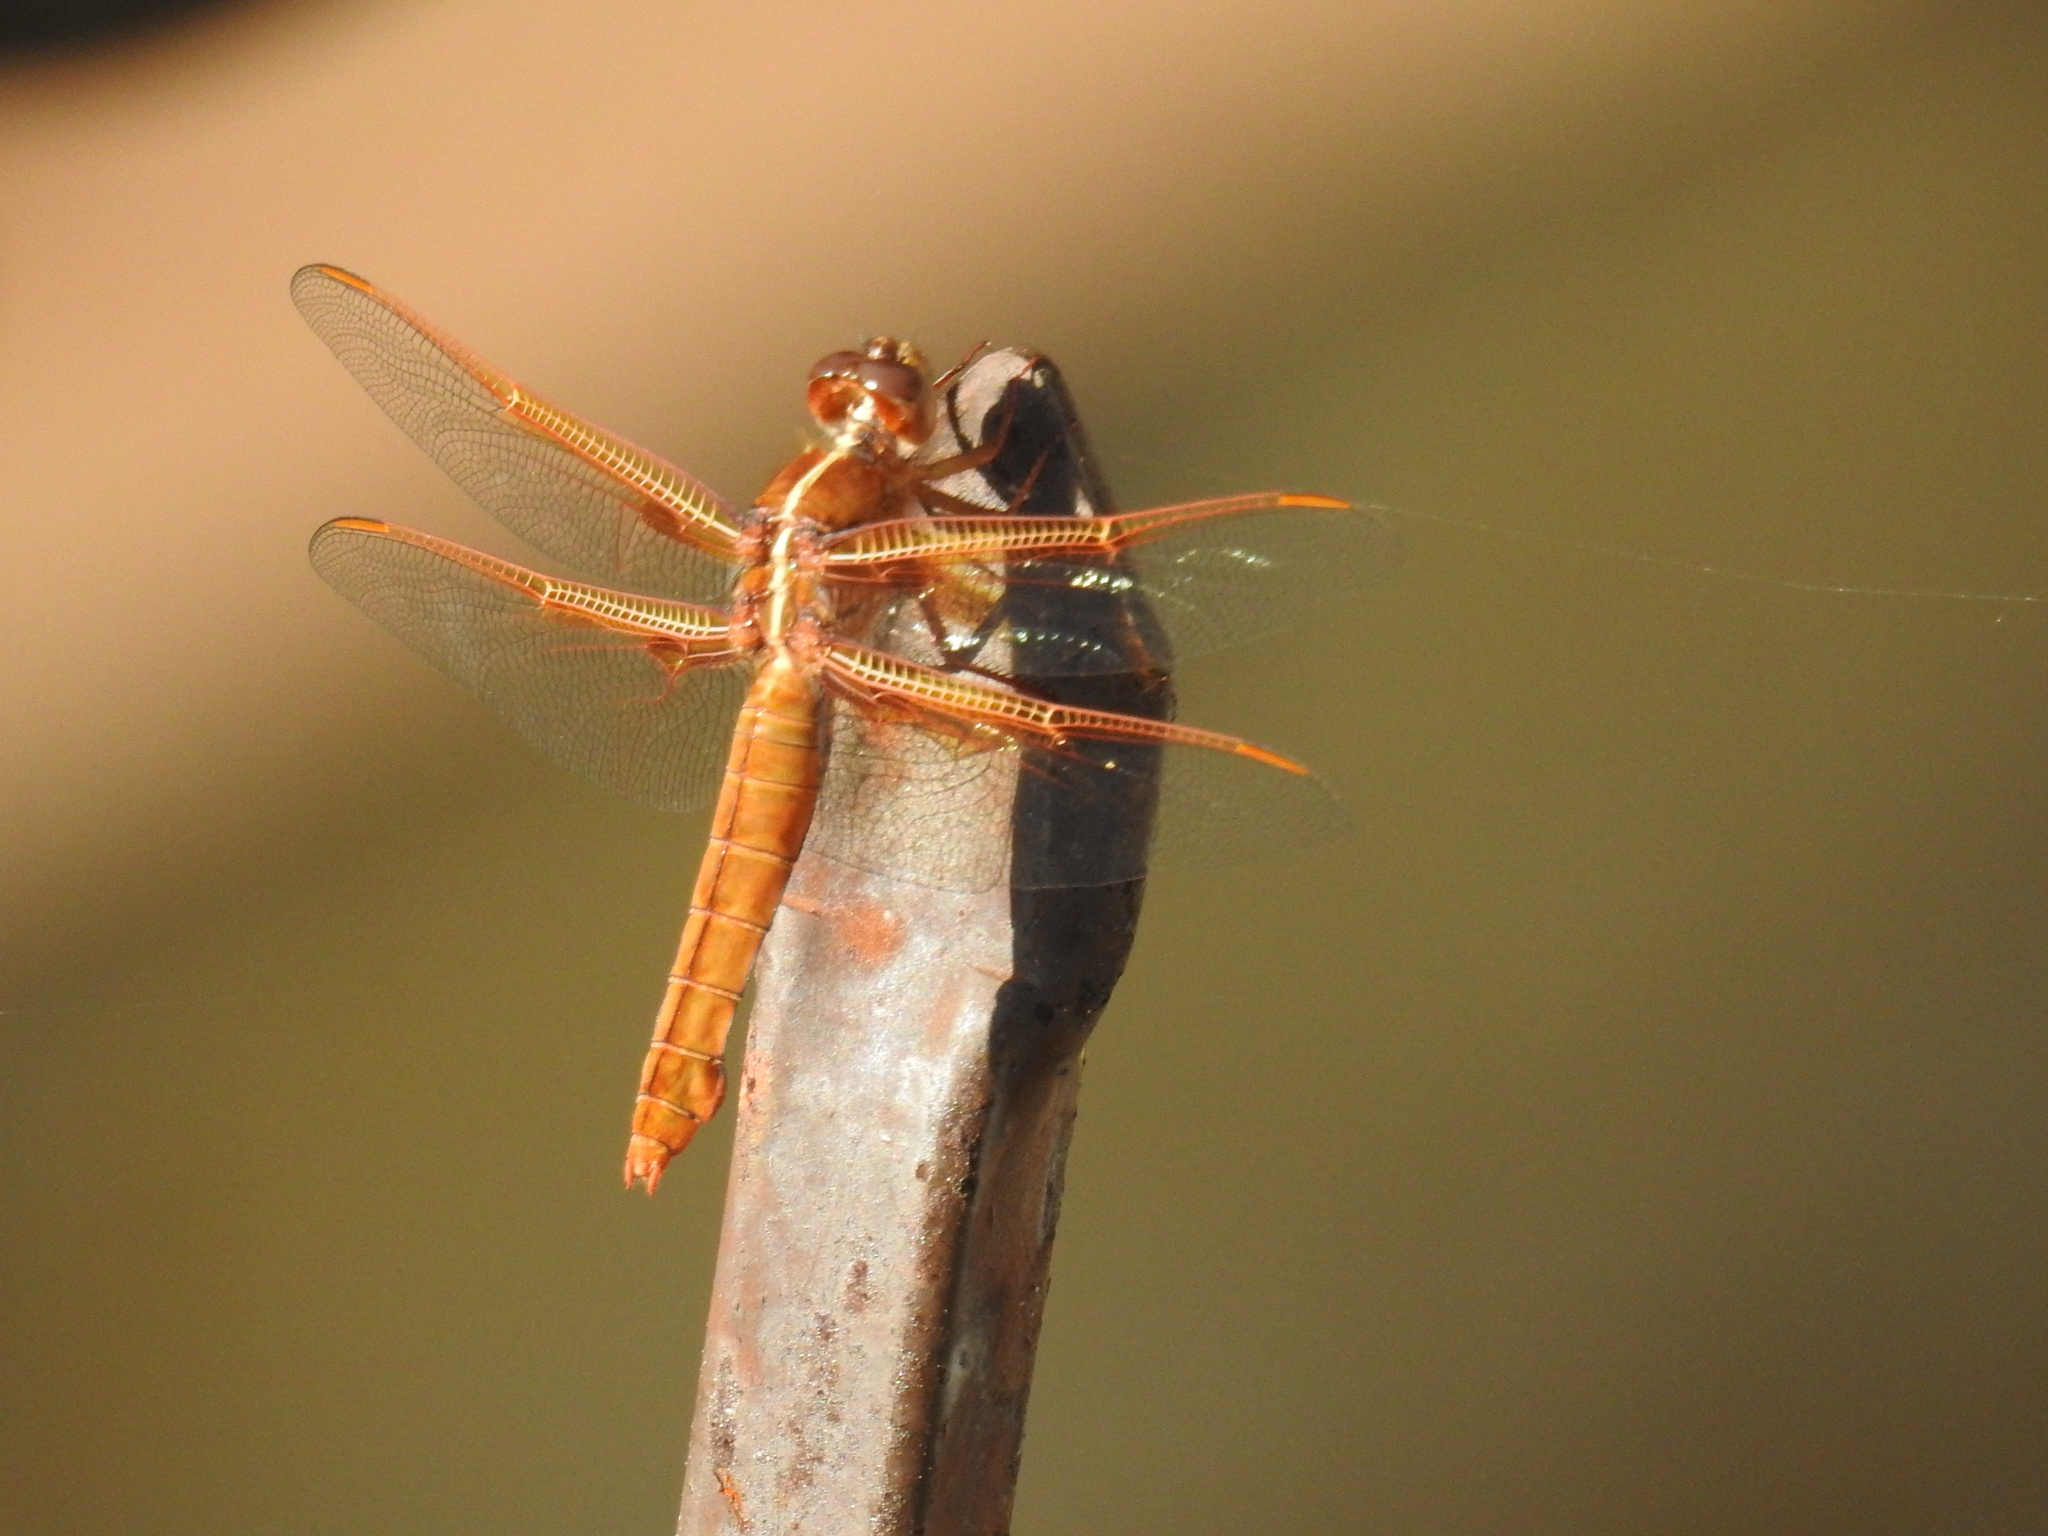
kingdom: Animalia
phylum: Arthropoda
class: Insecta
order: Odonata
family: Libellulidae
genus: Libellula
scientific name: Libellula saturata
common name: Flame skimmer
